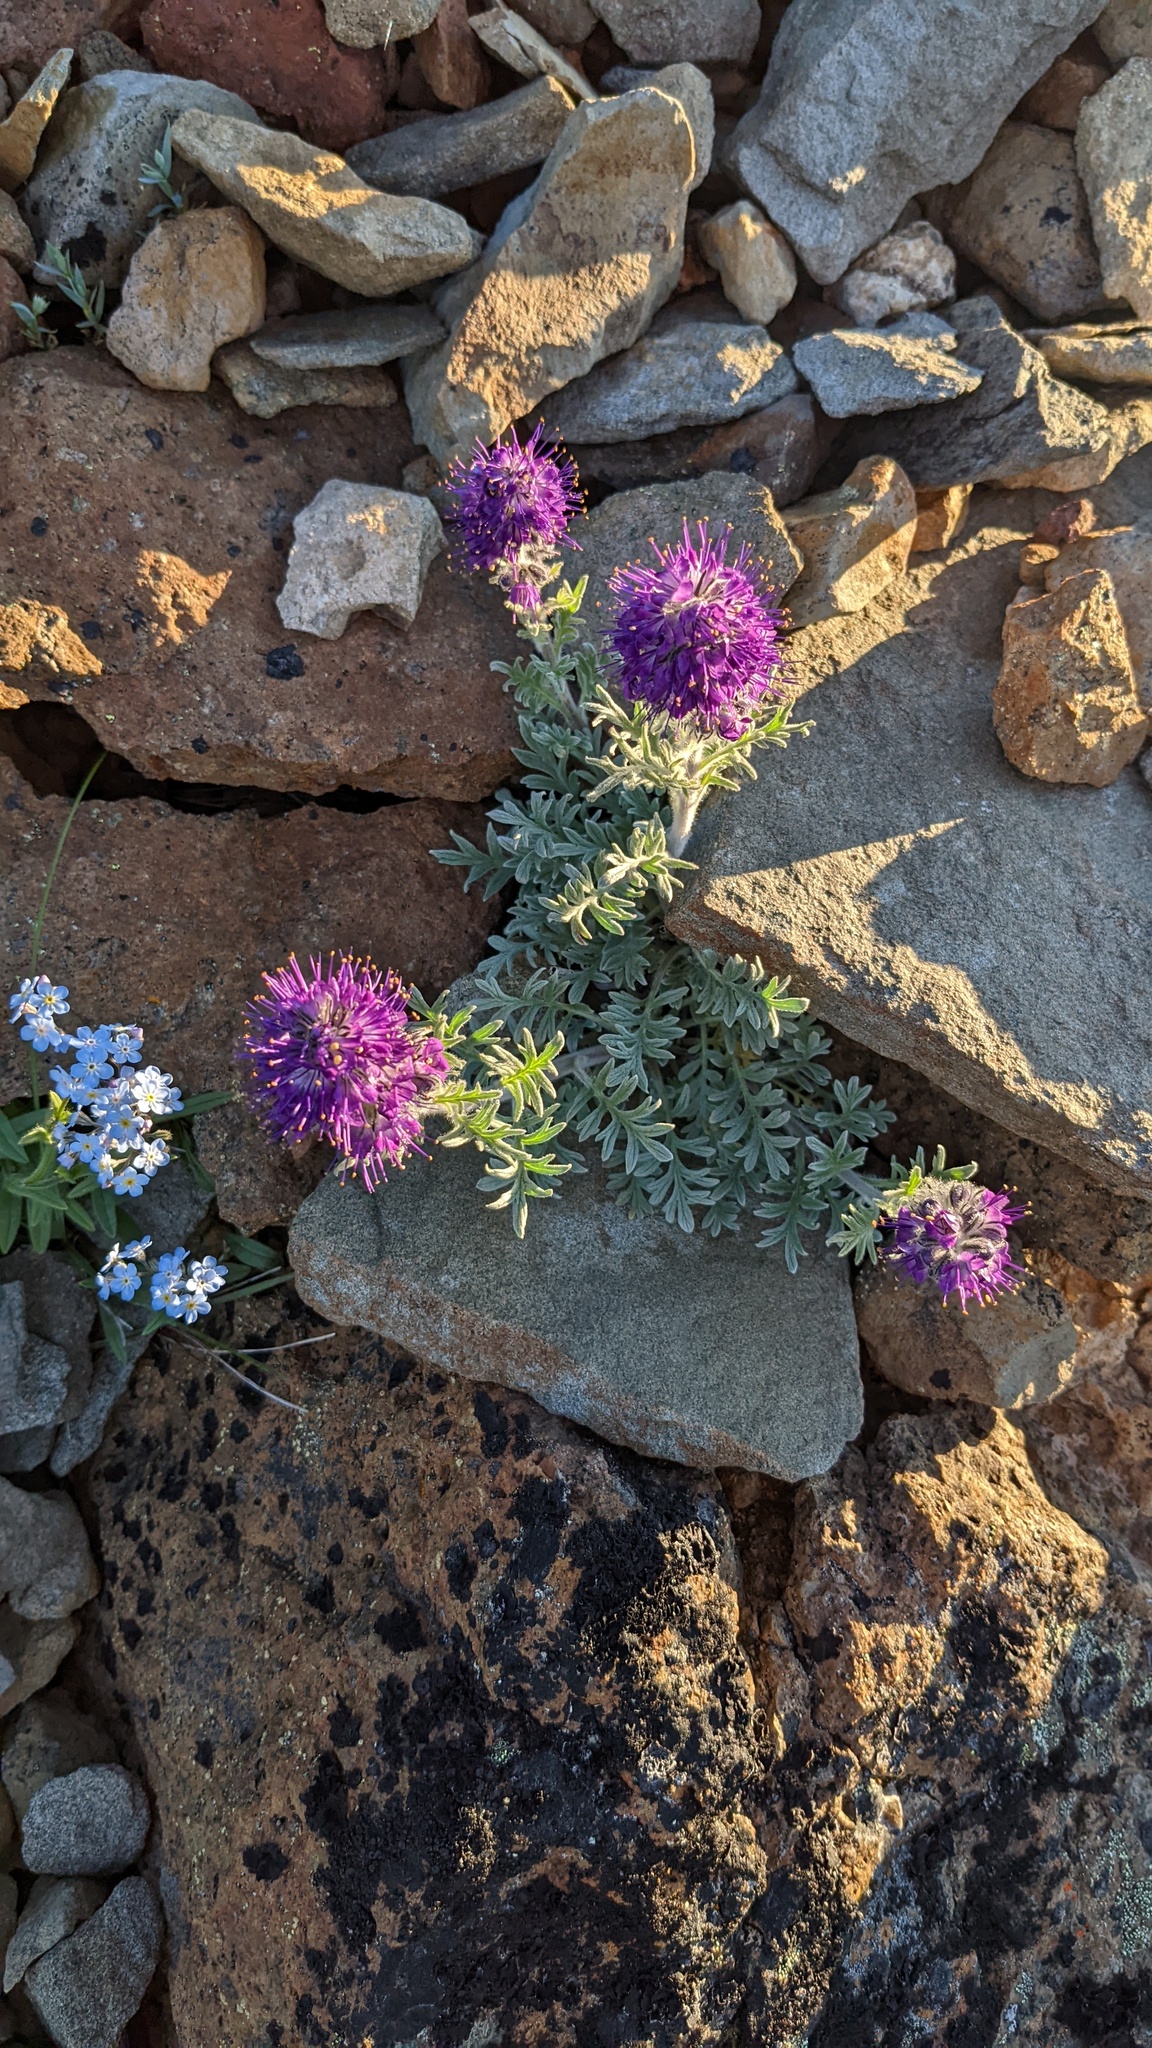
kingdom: Plantae
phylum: Tracheophyta
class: Magnoliopsida
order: Boraginales
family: Hydrophyllaceae
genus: Phacelia
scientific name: Phacelia sericea
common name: Silky phacelia
